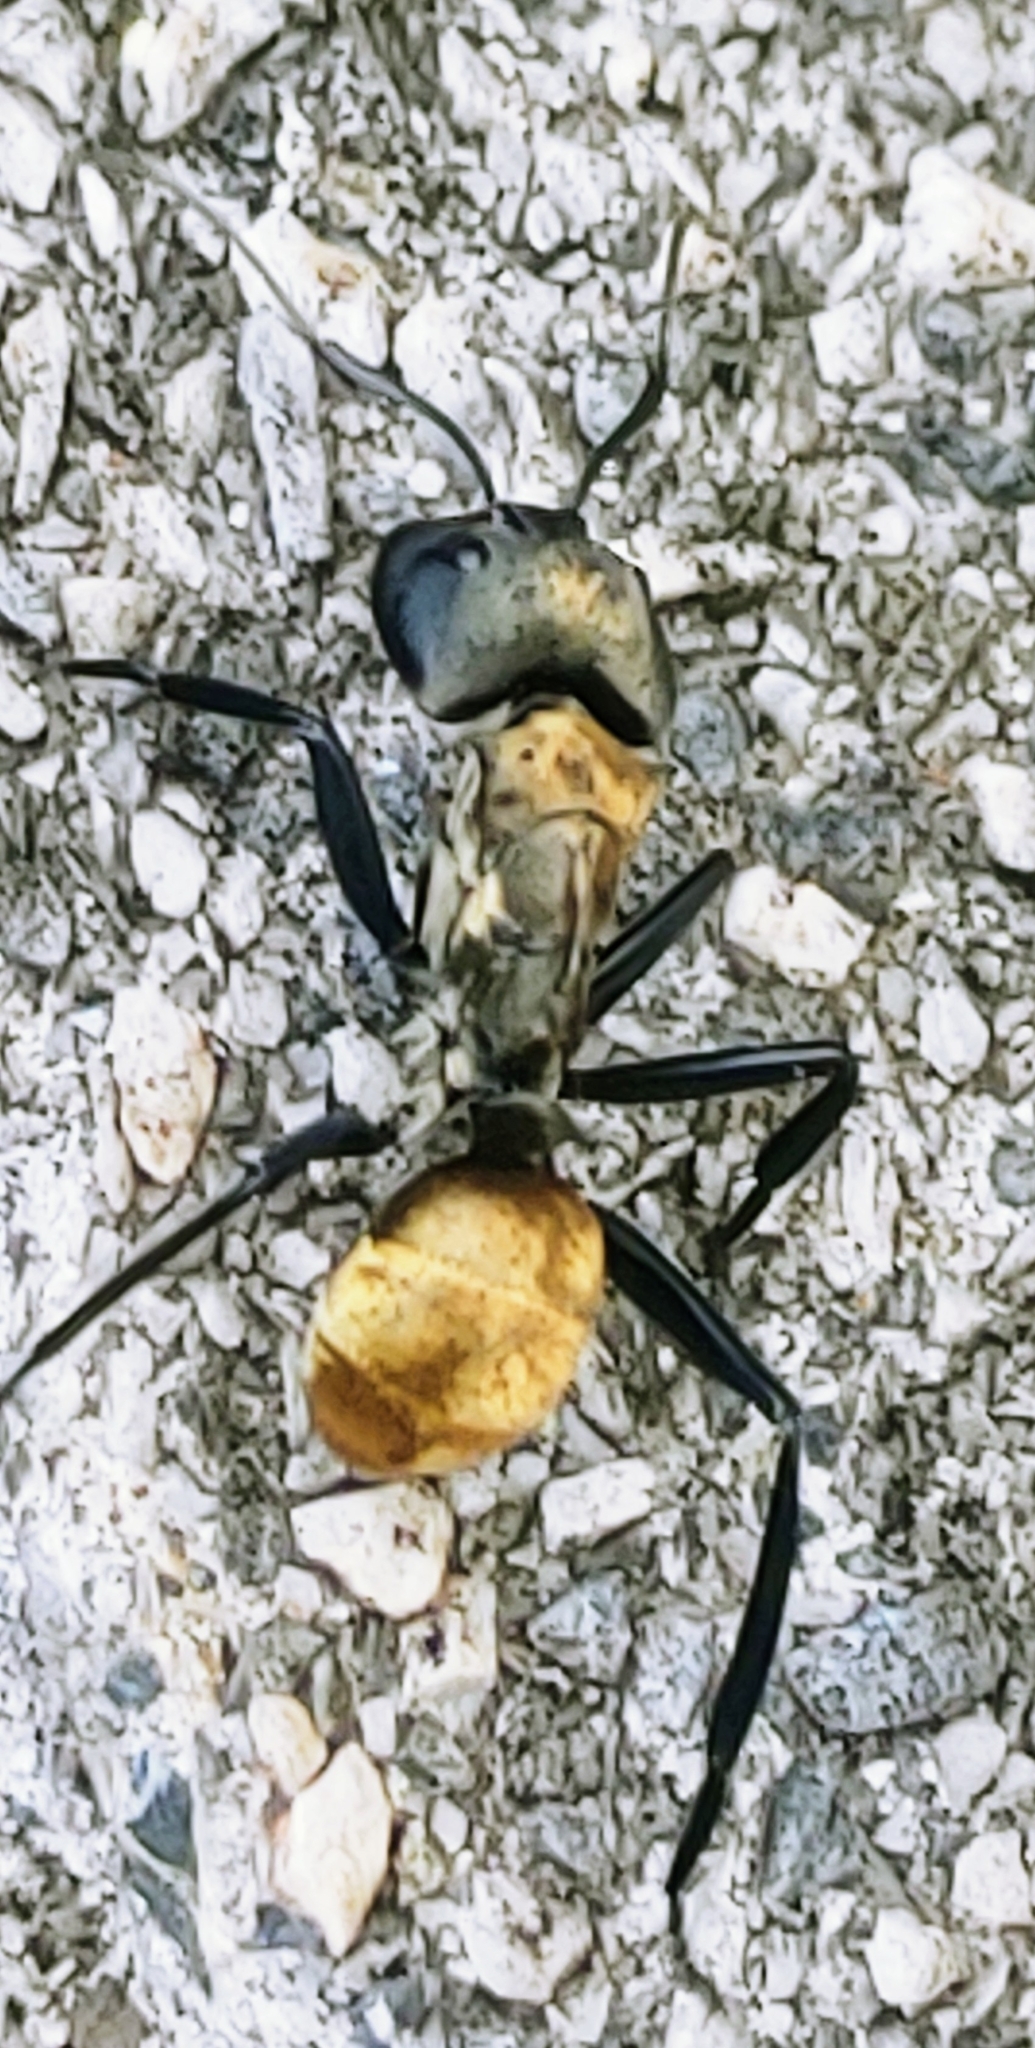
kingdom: Animalia
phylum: Arthropoda
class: Insecta
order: Hymenoptera
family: Formicidae
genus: Camponotus
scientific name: Camponotus sericeiventris
